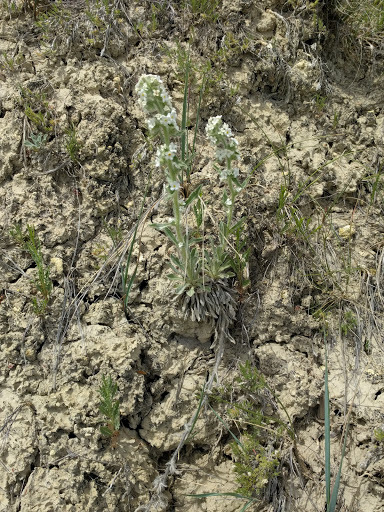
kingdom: Plantae
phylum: Tracheophyta
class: Magnoliopsida
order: Boraginales
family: Boraginaceae
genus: Oreocarya
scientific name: Oreocarya glomerata
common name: Macoun's cryptantha
